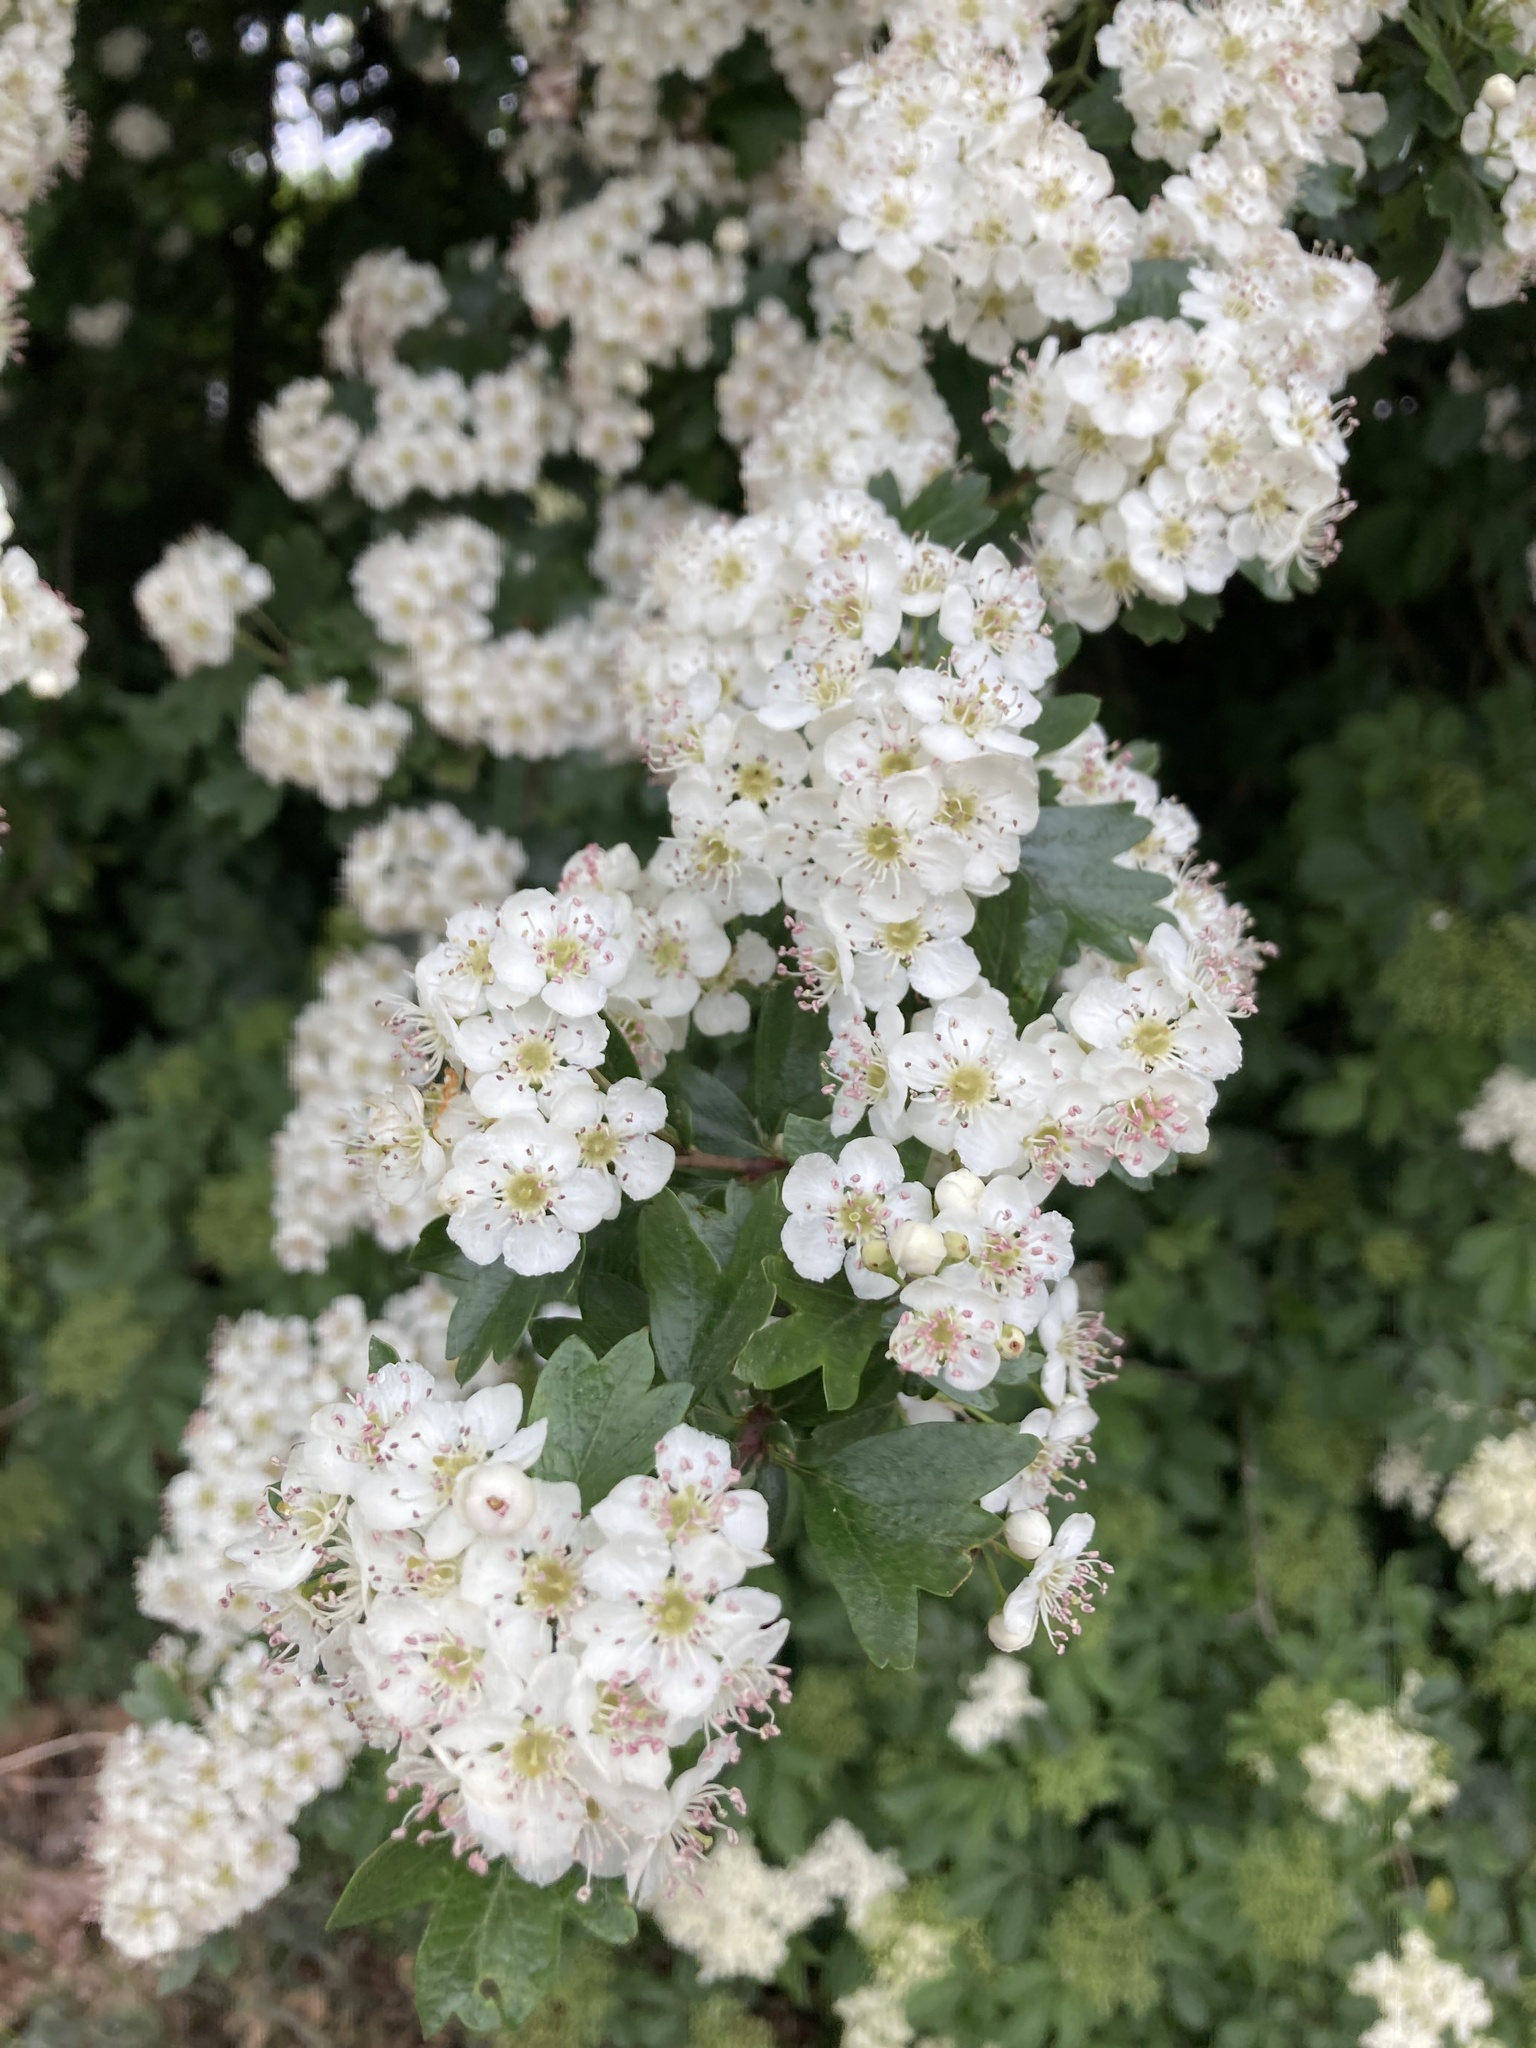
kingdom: Plantae
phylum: Tracheophyta
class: Magnoliopsida
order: Rosales
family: Rosaceae
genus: Crataegus
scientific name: Crataegus monogyna
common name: Hawthorn
